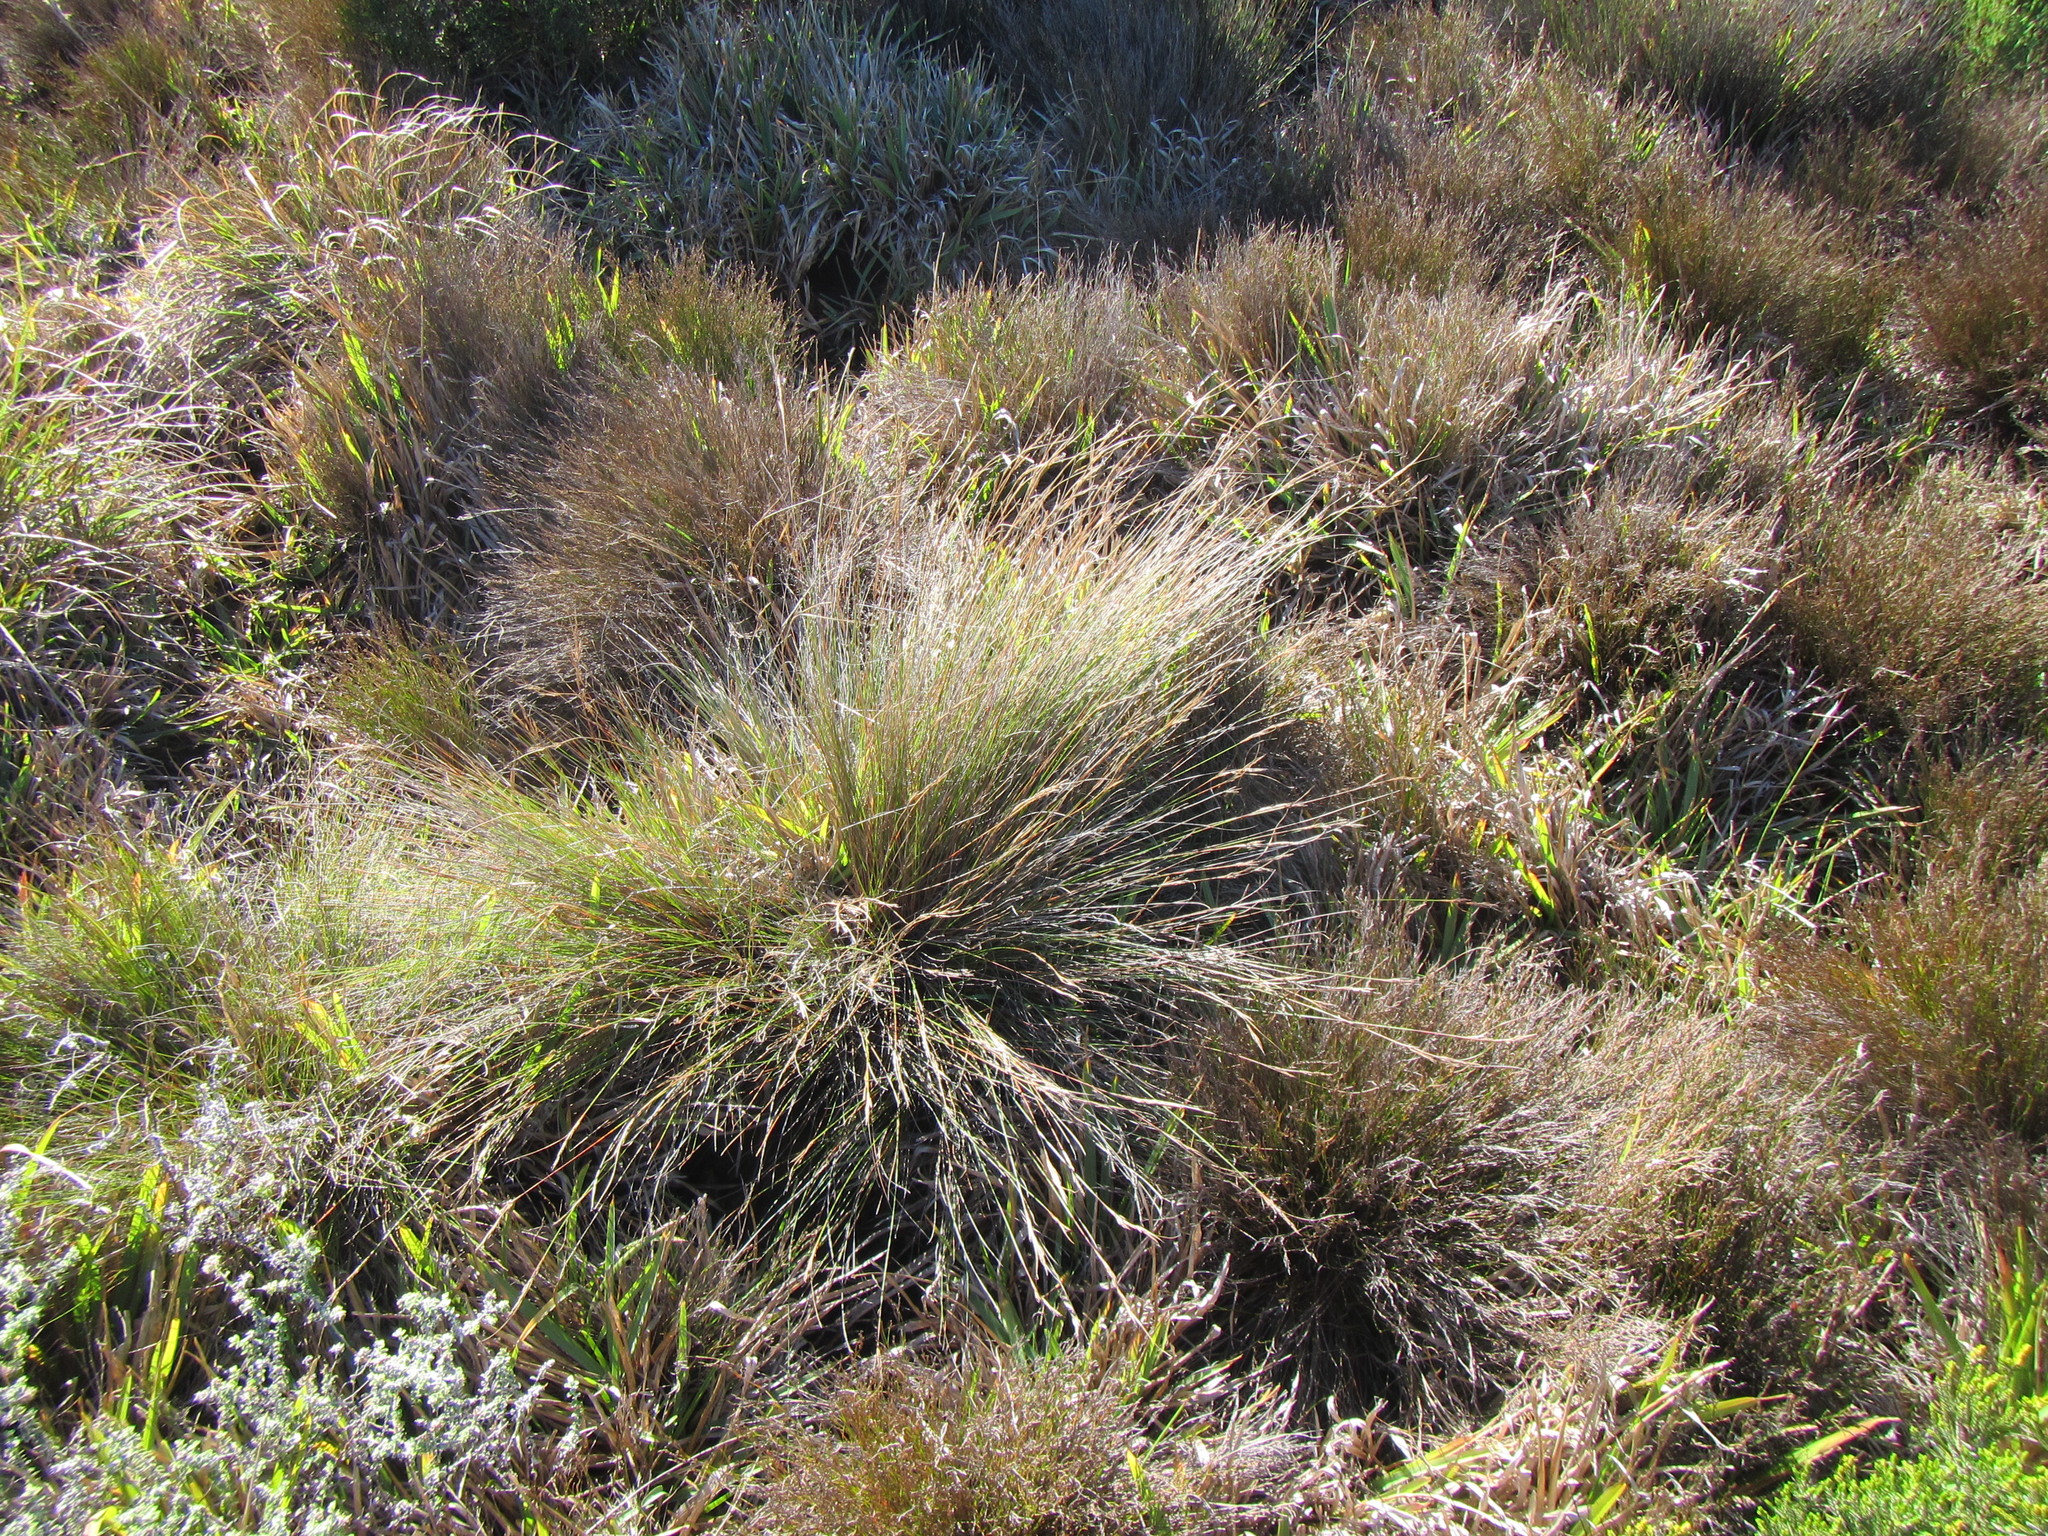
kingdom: Plantae
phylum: Tracheophyta
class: Liliopsida
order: Poales
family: Cyperaceae
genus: Schoenus
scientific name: Schoenus ligulatus
